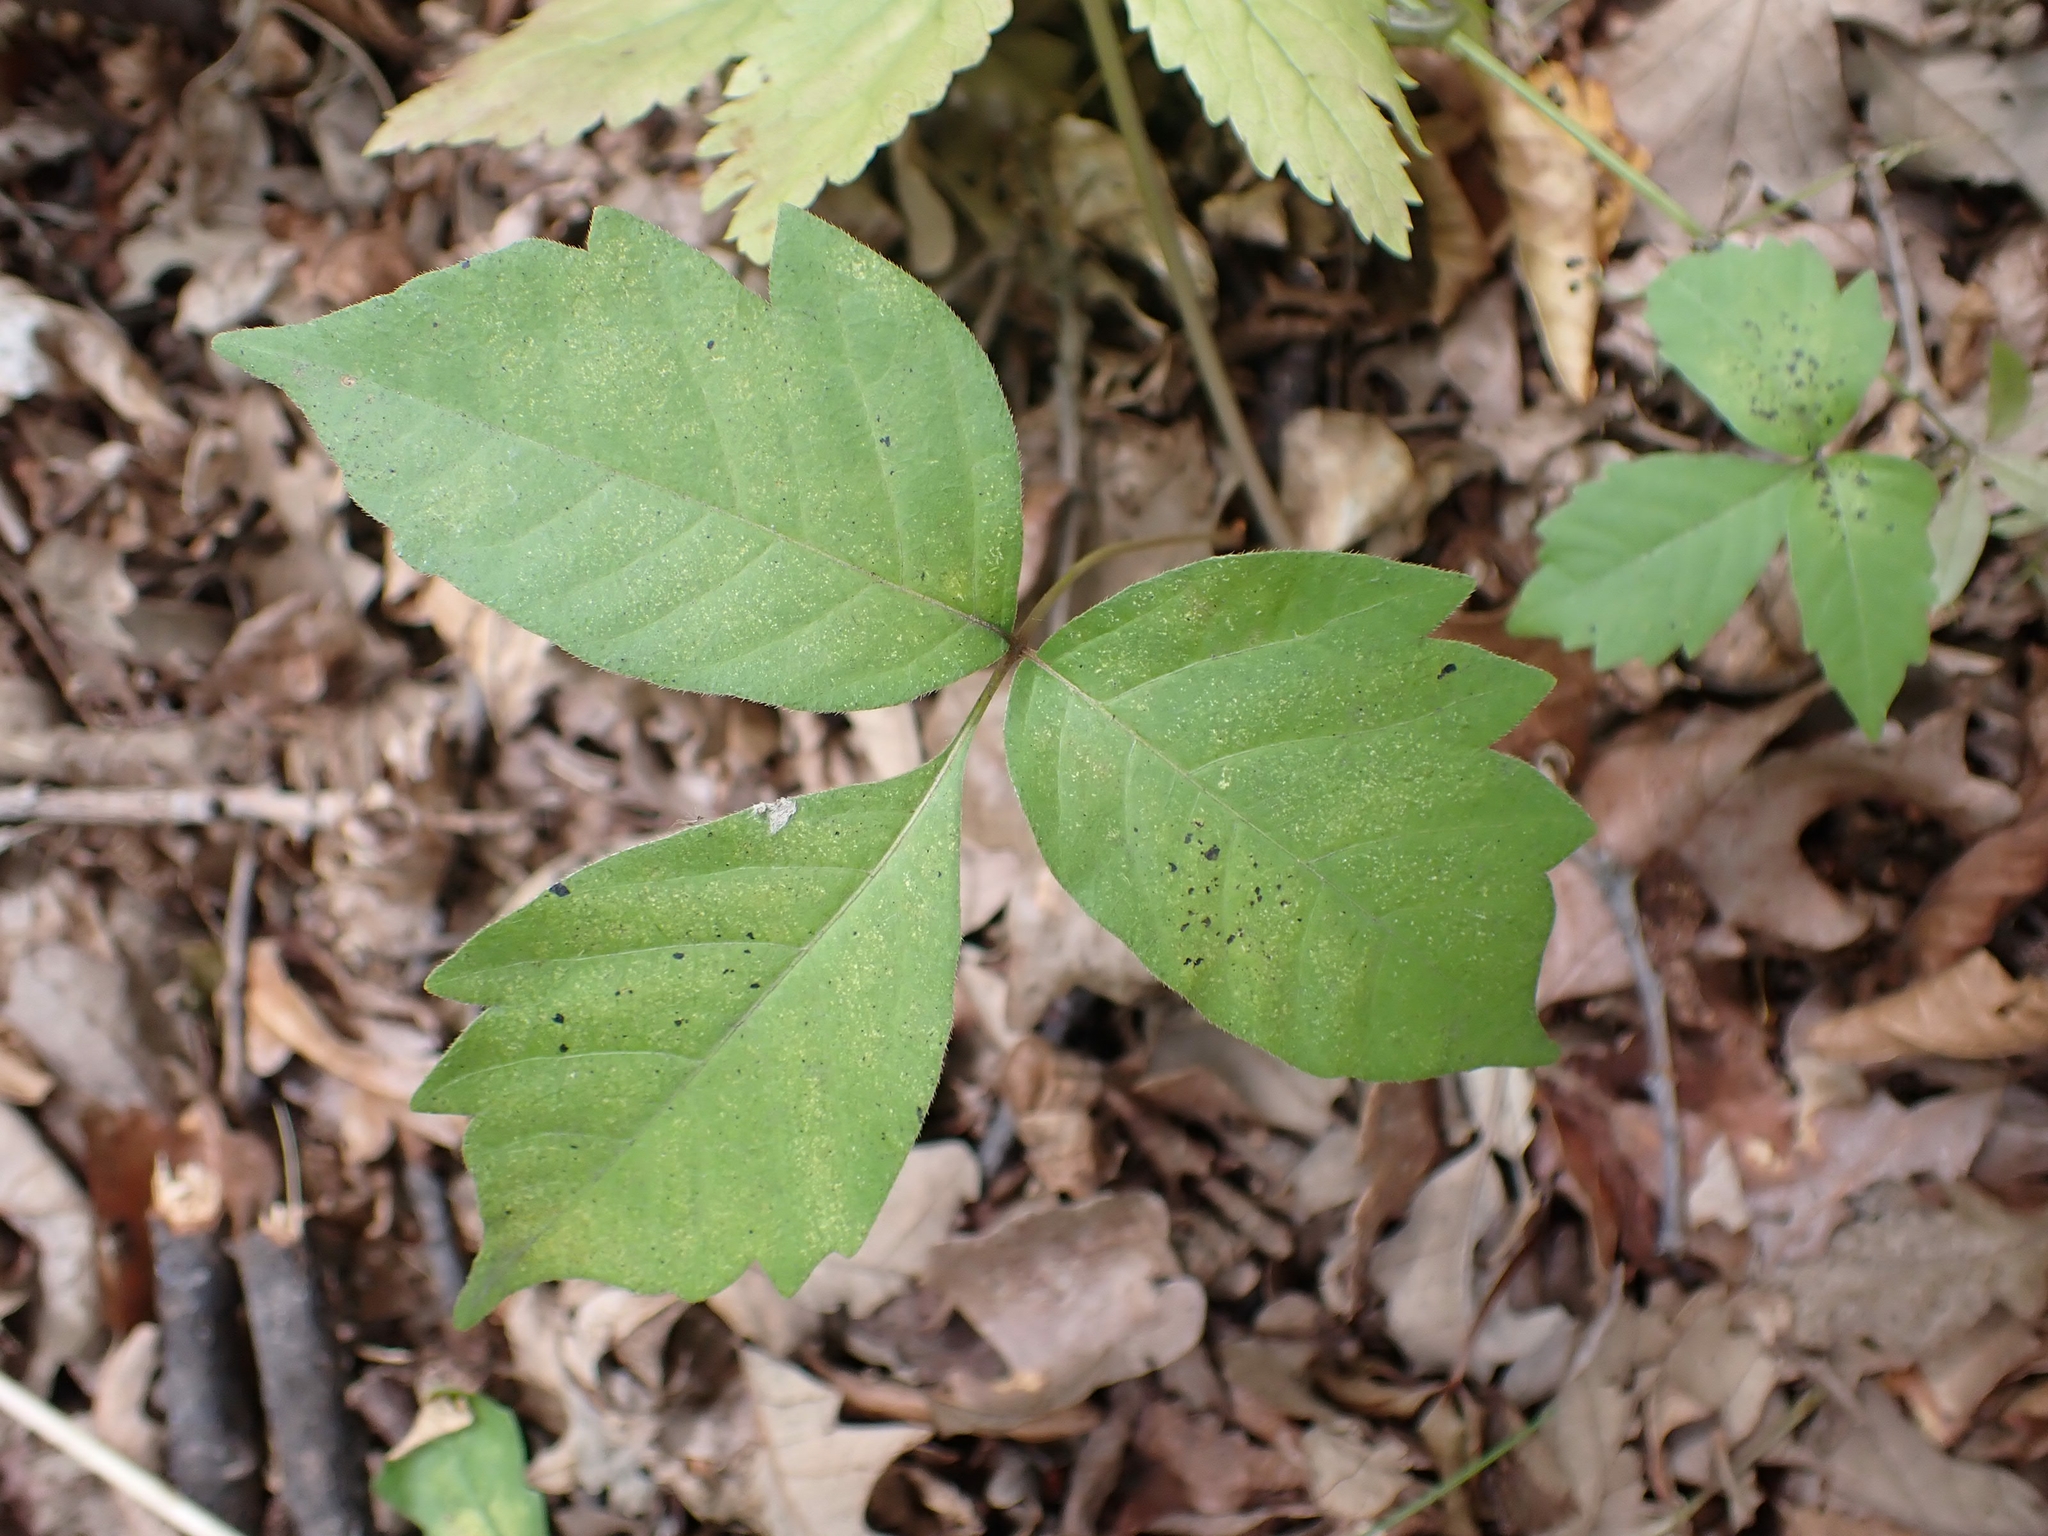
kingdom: Plantae
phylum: Tracheophyta
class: Magnoliopsida
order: Sapindales
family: Anacardiaceae
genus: Toxicodendron
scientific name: Toxicodendron rydbergii
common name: Rydberg's poison-ivy
